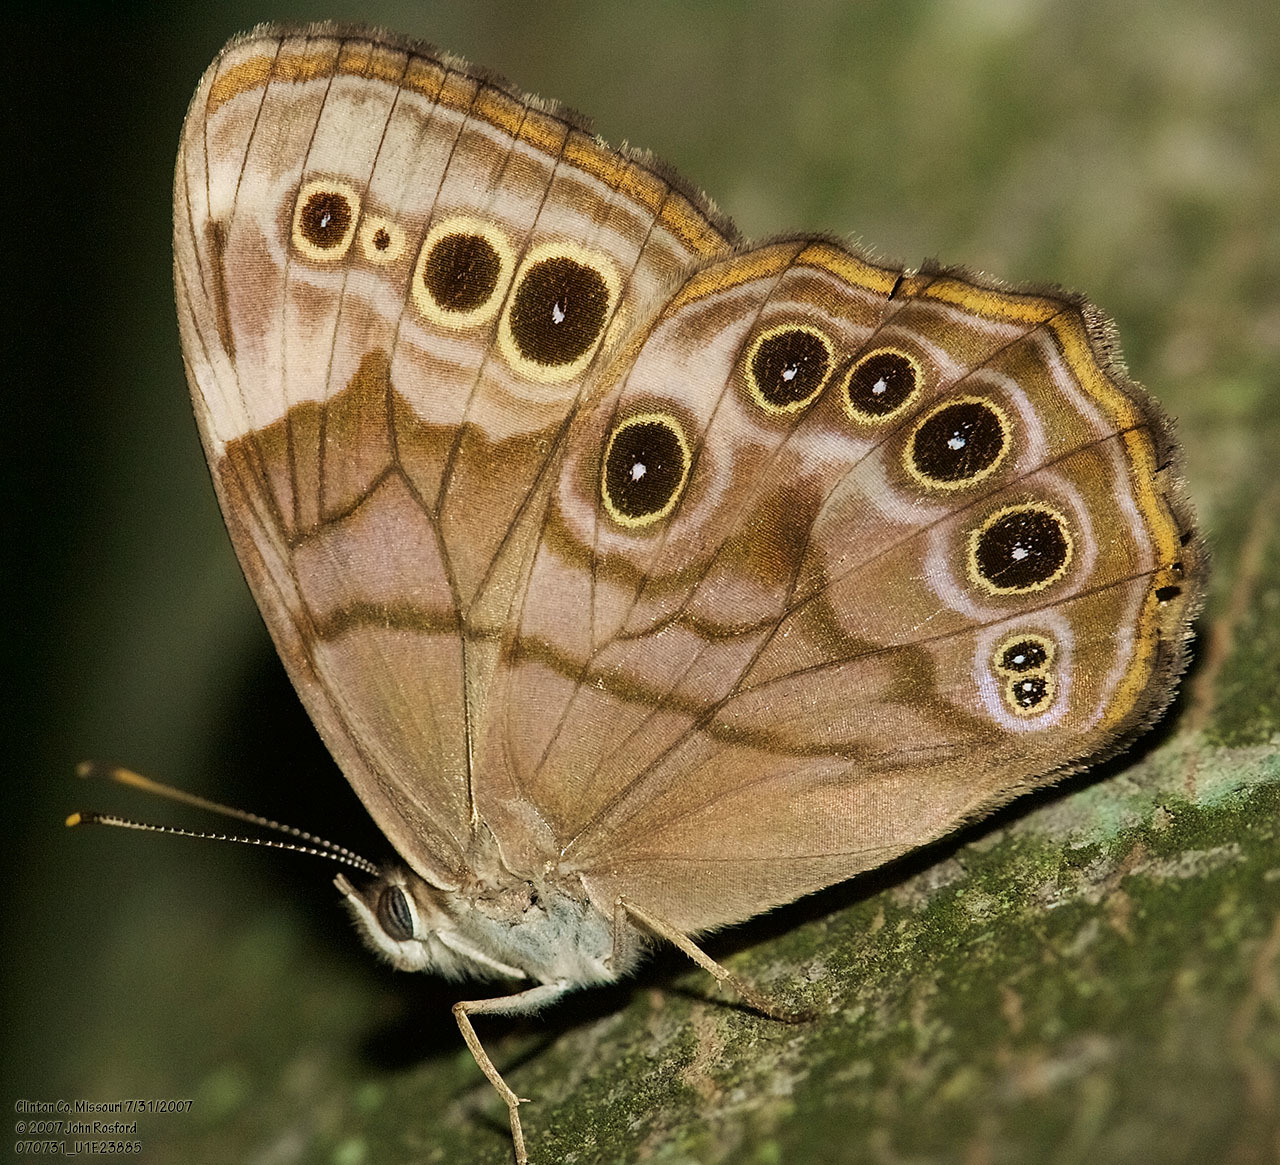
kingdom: Animalia
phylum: Arthropoda
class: Insecta
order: Lepidoptera
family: Nymphalidae
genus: Lethe
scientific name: Lethe anthedon
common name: Northern pearly-eye
